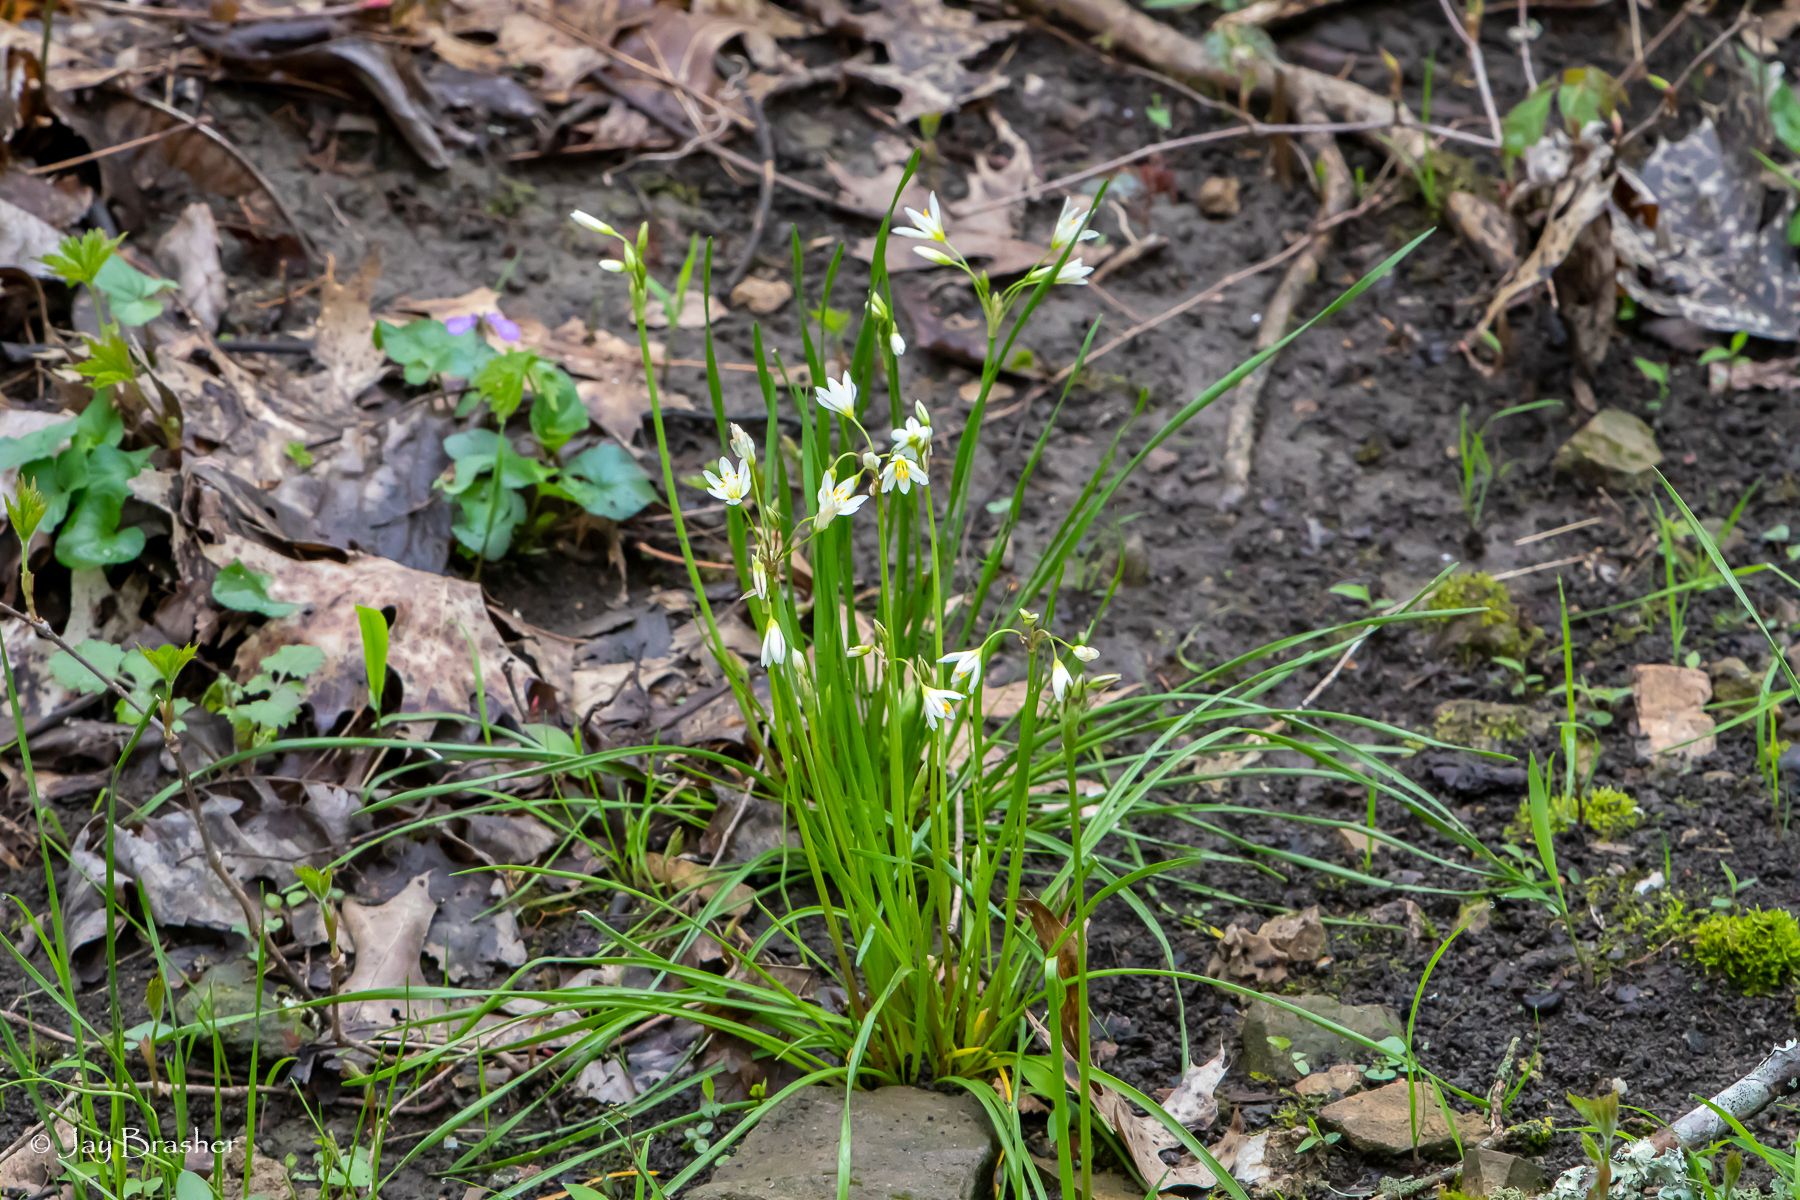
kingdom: Plantae
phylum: Tracheophyta
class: Liliopsida
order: Asparagales
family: Amaryllidaceae
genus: Nothoscordum
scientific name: Nothoscordum bivalve
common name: Crow-poison
